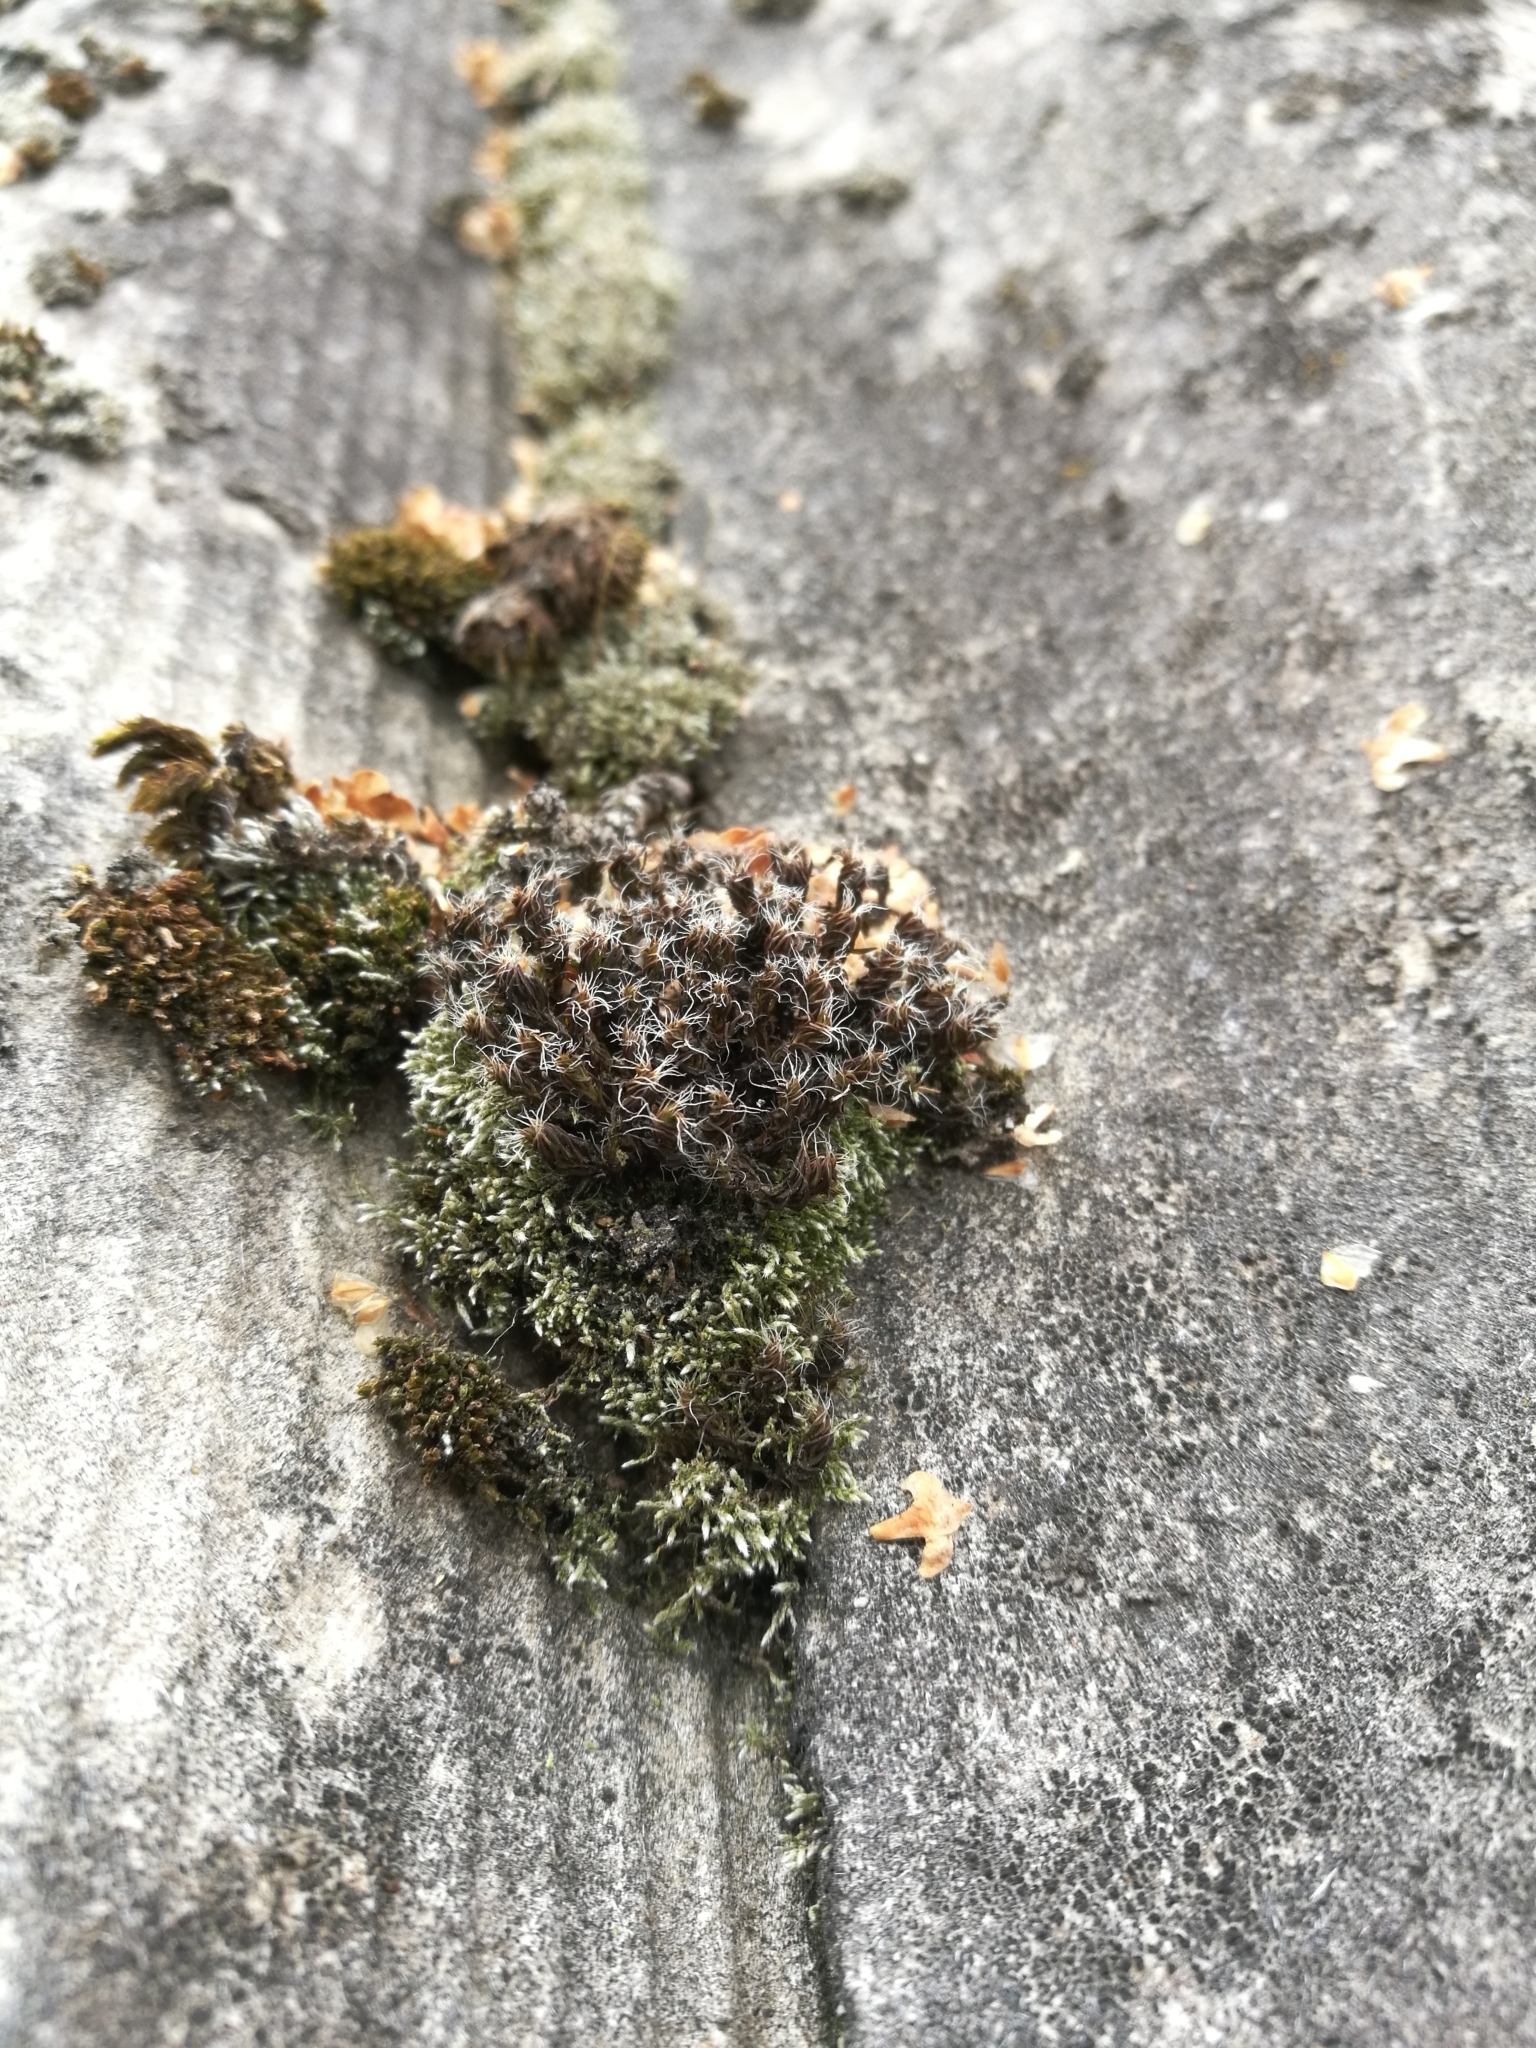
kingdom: Plantae
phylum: Bryophyta
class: Bryopsida
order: Pottiales
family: Pottiaceae
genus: Syntrichia
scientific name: Syntrichia ruralis
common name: Sidewalk screw moss
